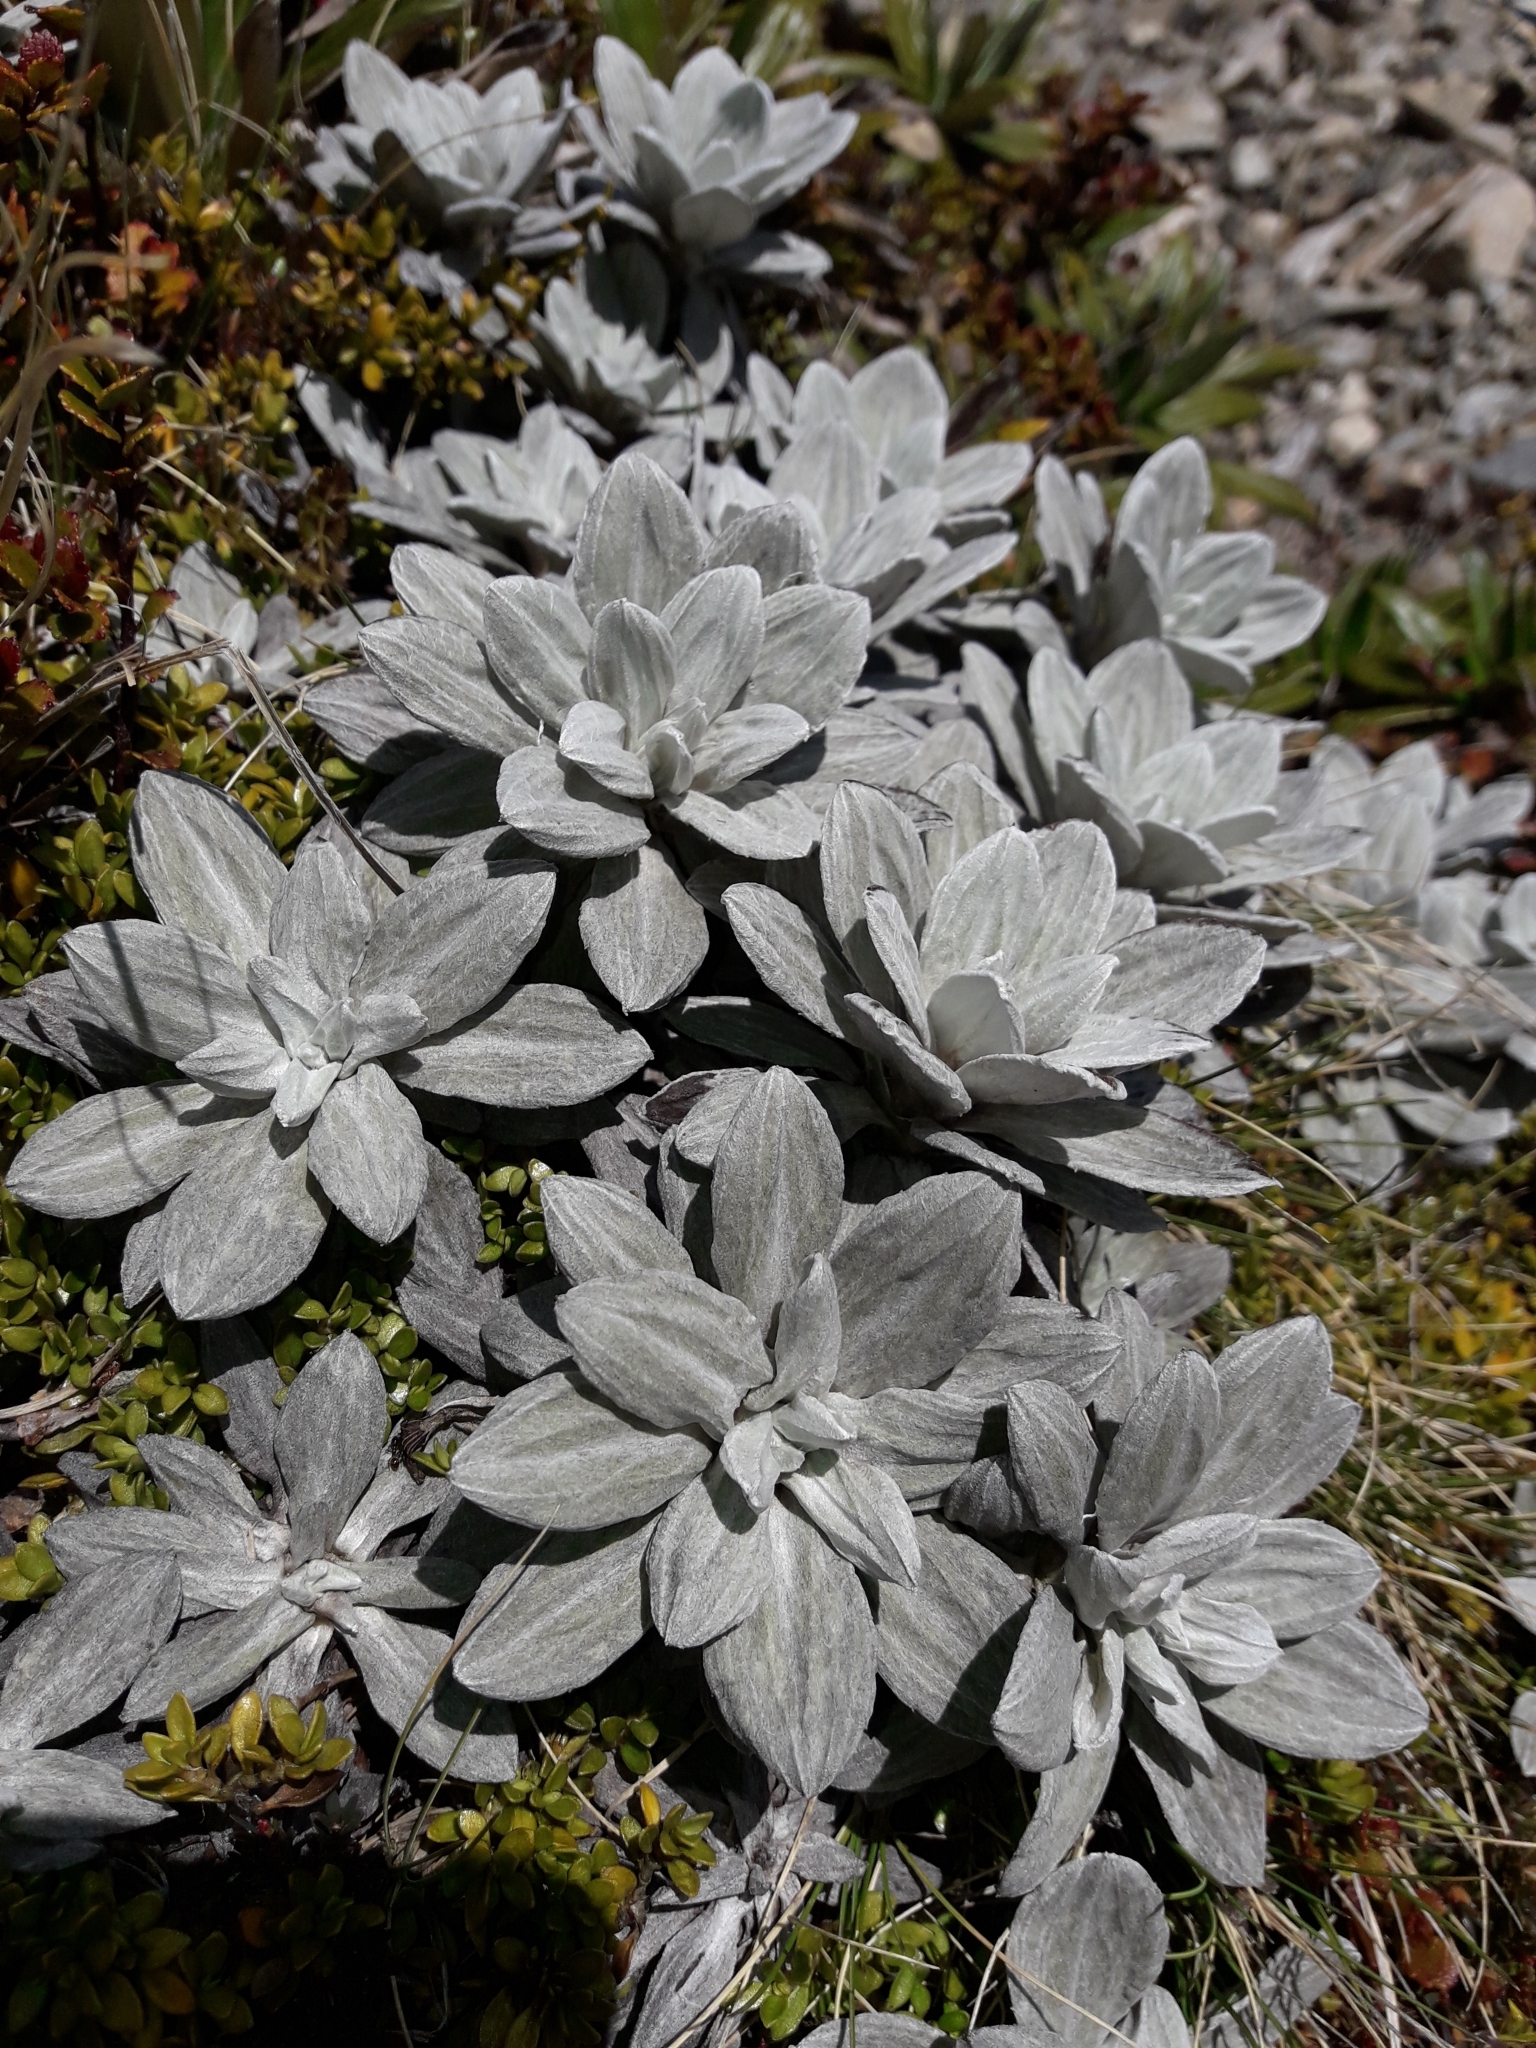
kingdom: Plantae
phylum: Tracheophyta
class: Magnoliopsida
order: Asterales
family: Asteraceae
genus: Celmisia
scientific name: Celmisia incana
